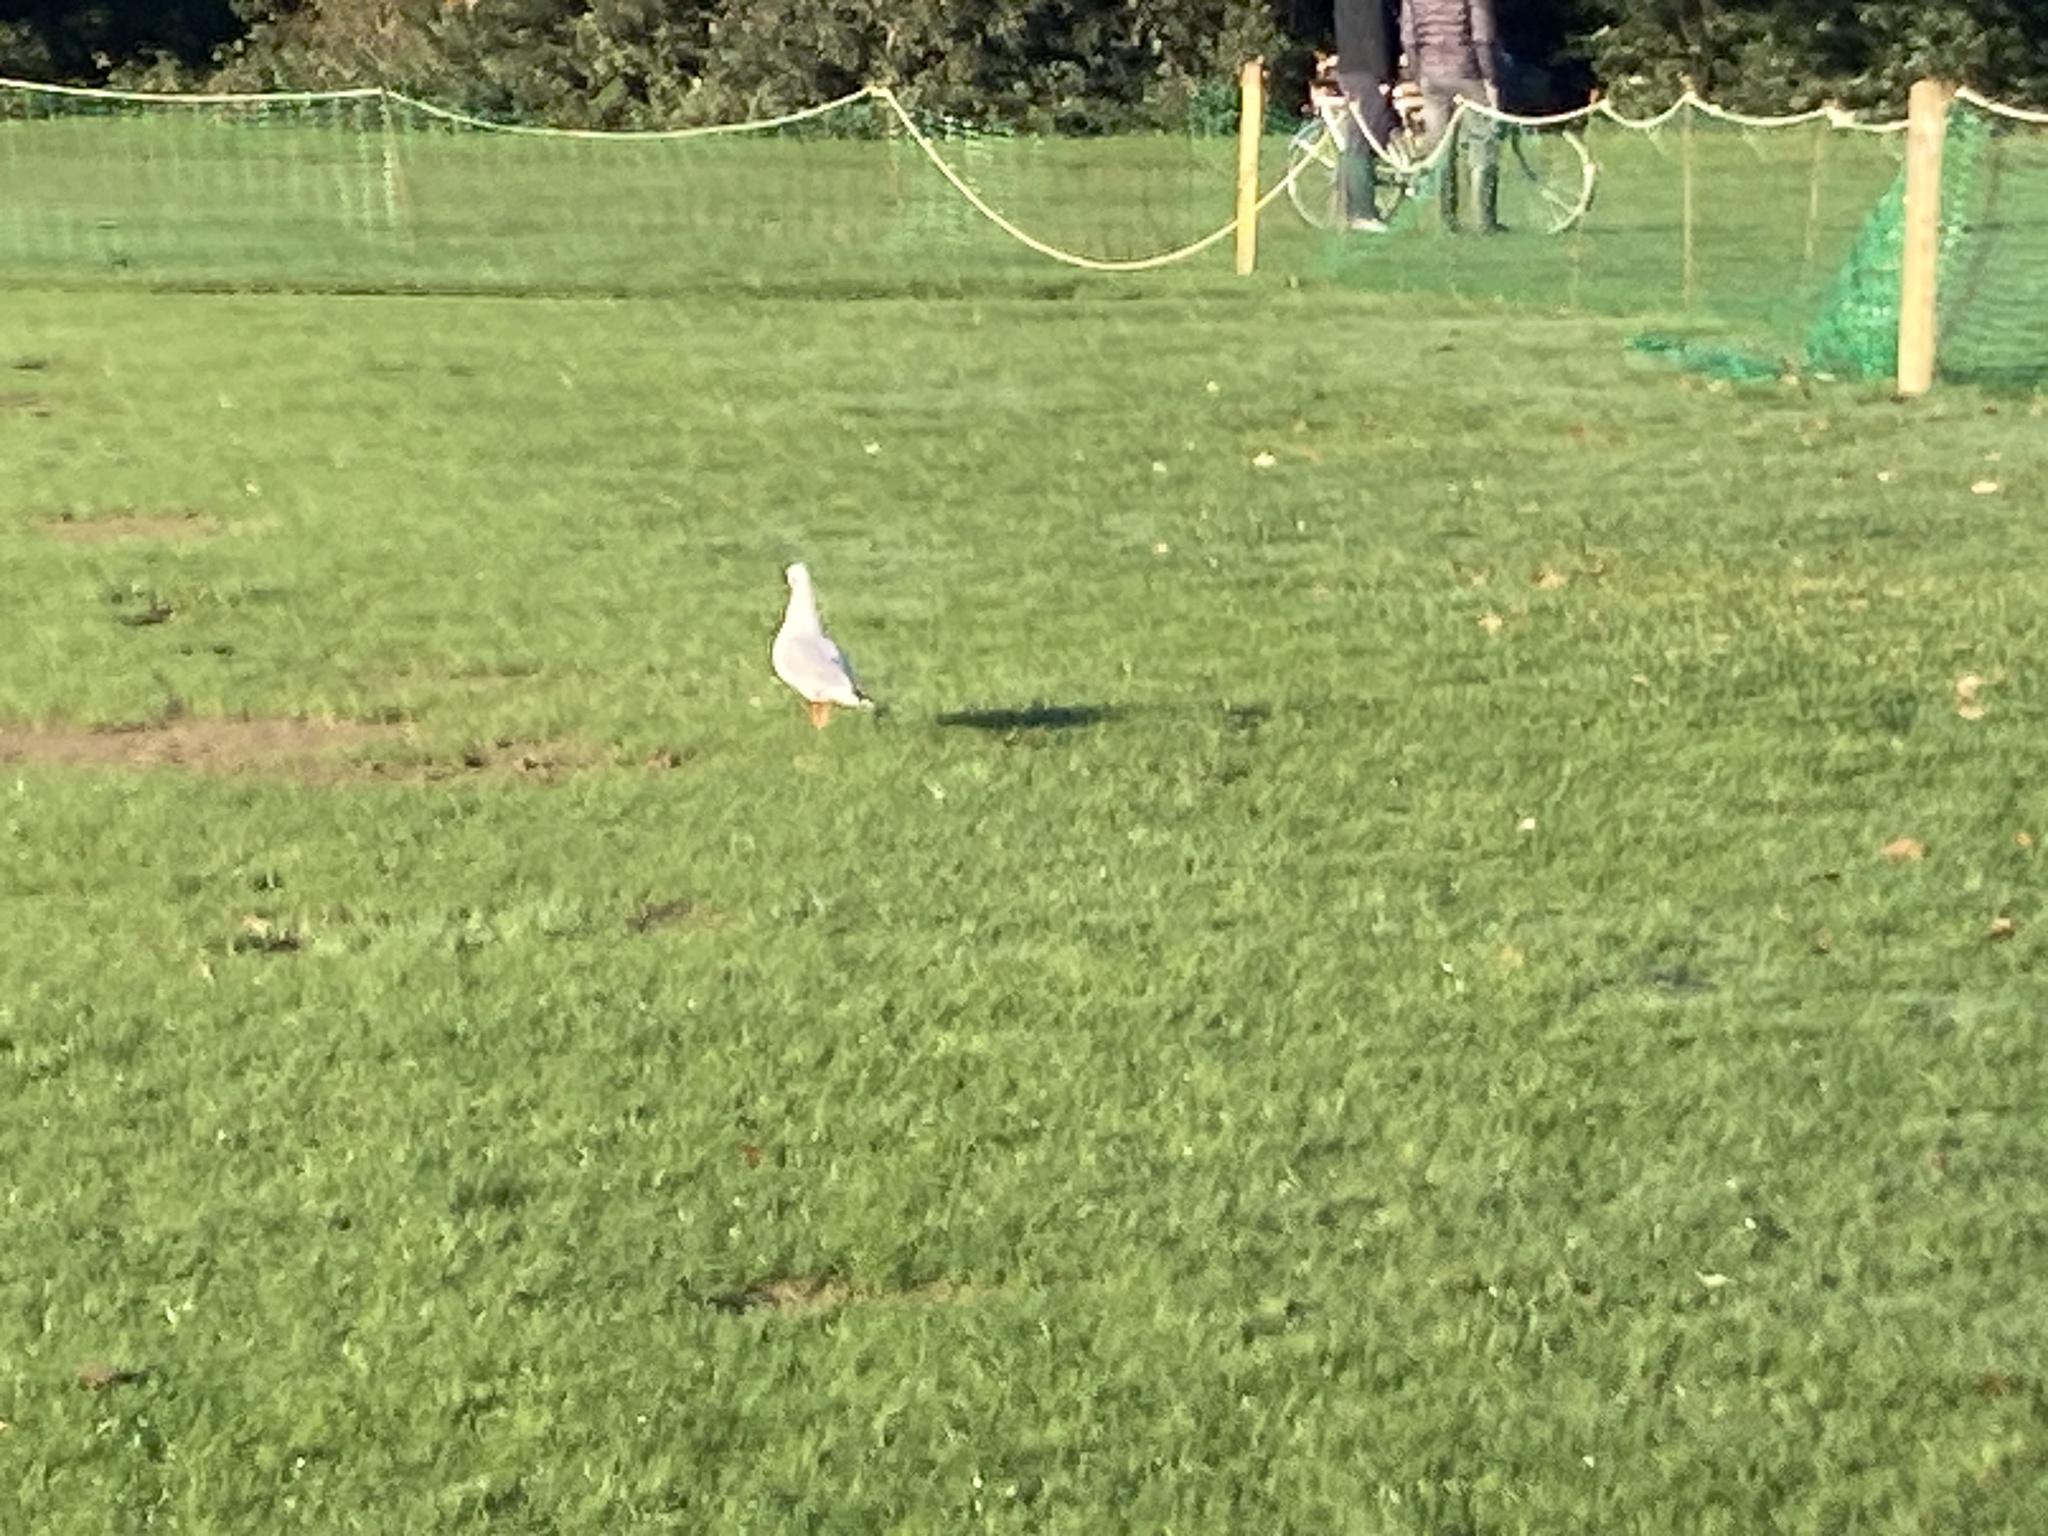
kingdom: Animalia
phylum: Chordata
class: Aves
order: Charadriiformes
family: Laridae
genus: Chroicocephalus
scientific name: Chroicocephalus ridibundus
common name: Black-headed gull
